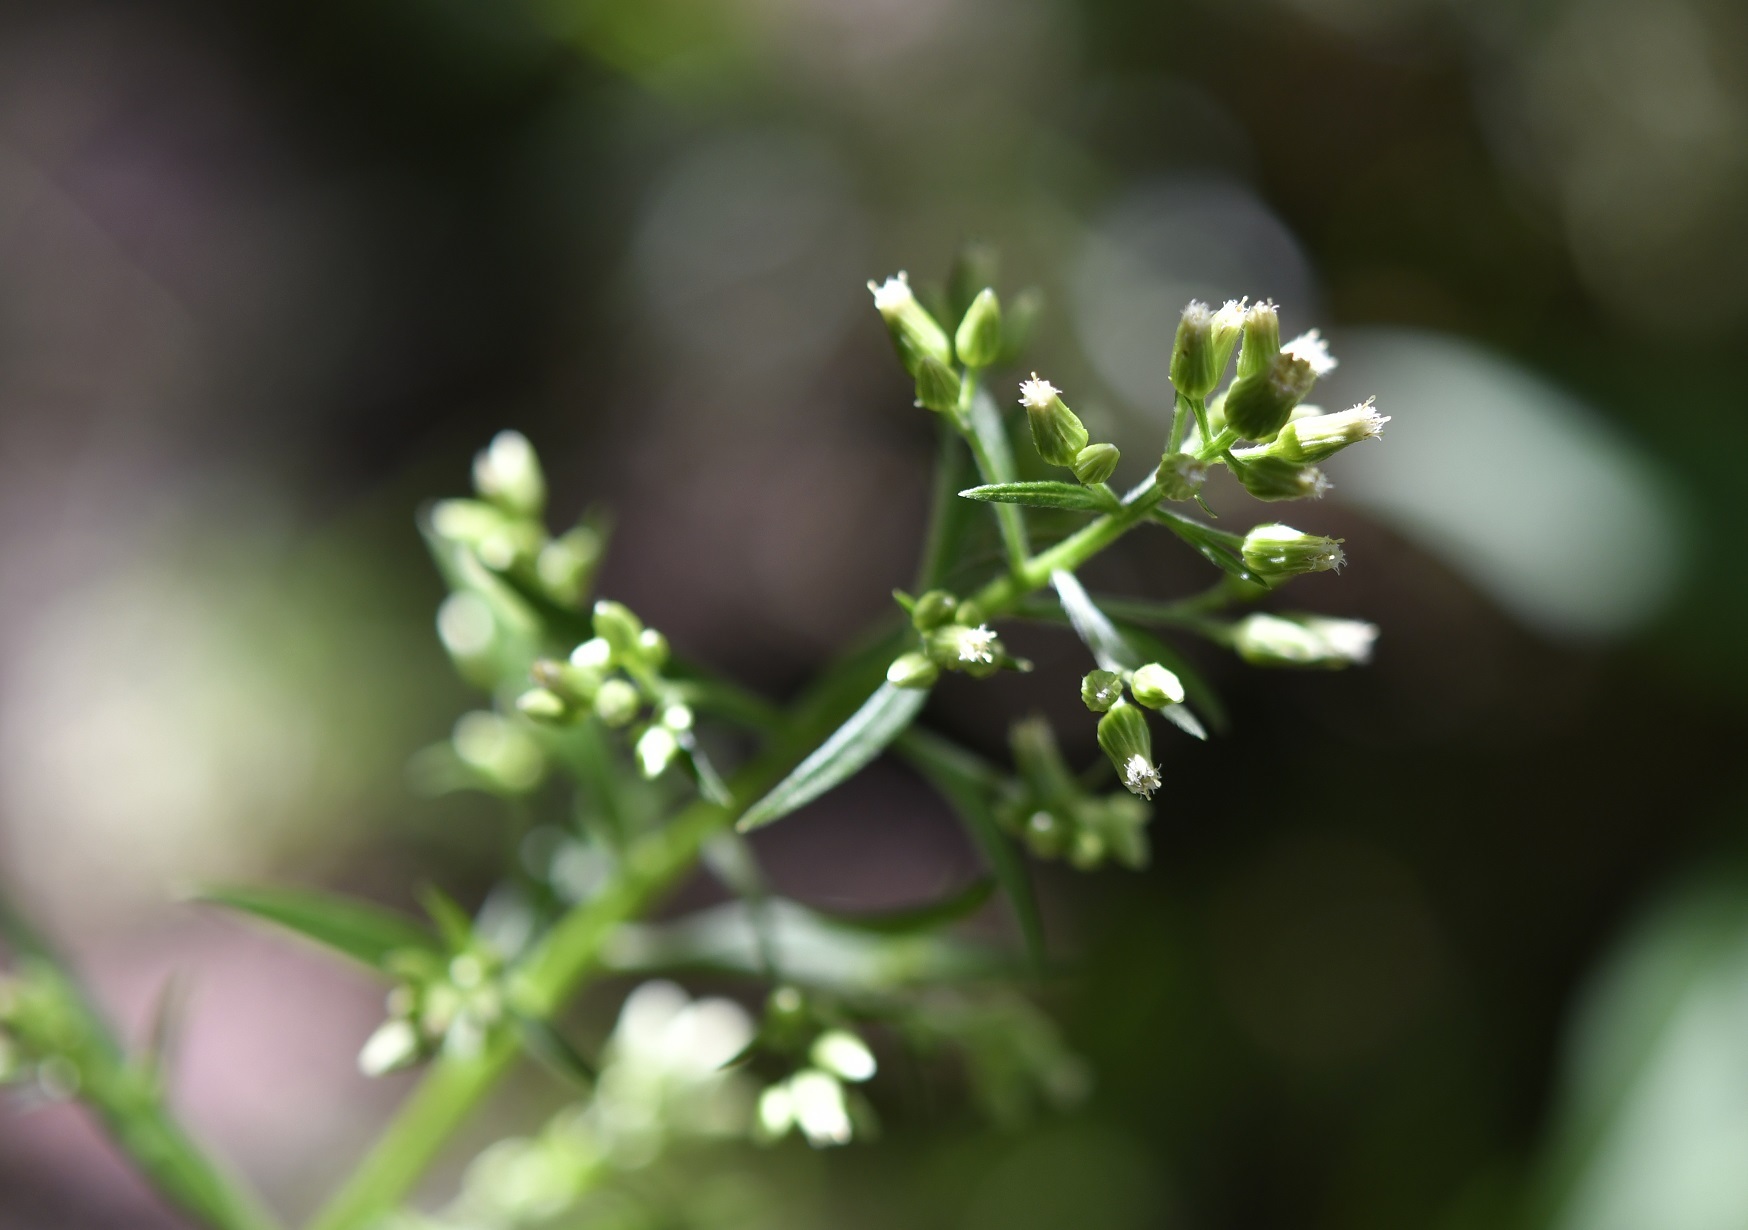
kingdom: Plantae
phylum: Tracheophyta
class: Magnoliopsida
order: Asterales
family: Asteraceae
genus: Erigeron
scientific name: Erigeron canadensis
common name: Canadian fleabane
